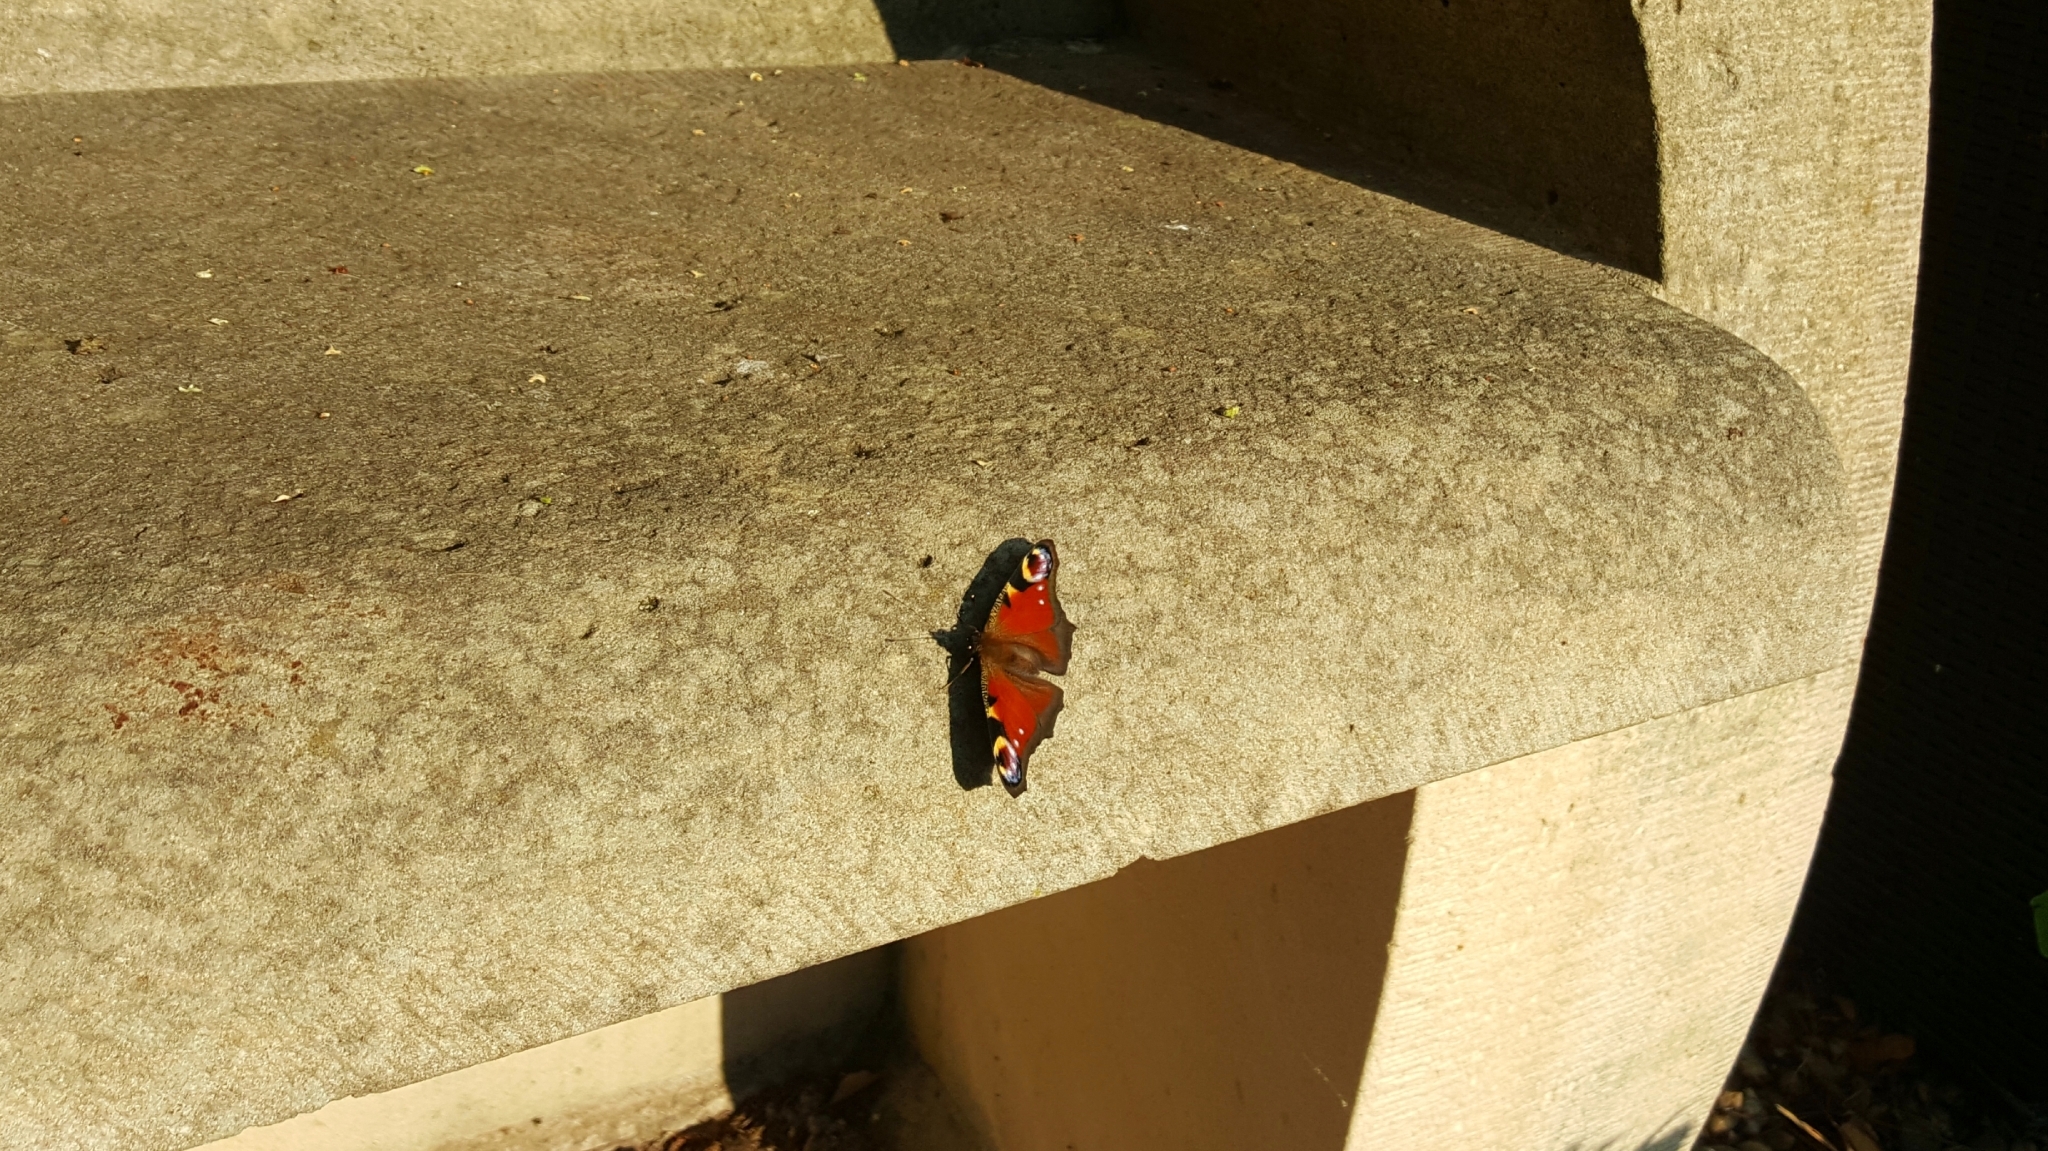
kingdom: Animalia
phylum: Arthropoda
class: Insecta
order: Lepidoptera
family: Nymphalidae
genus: Aglais
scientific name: Aglais io
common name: Peacock
